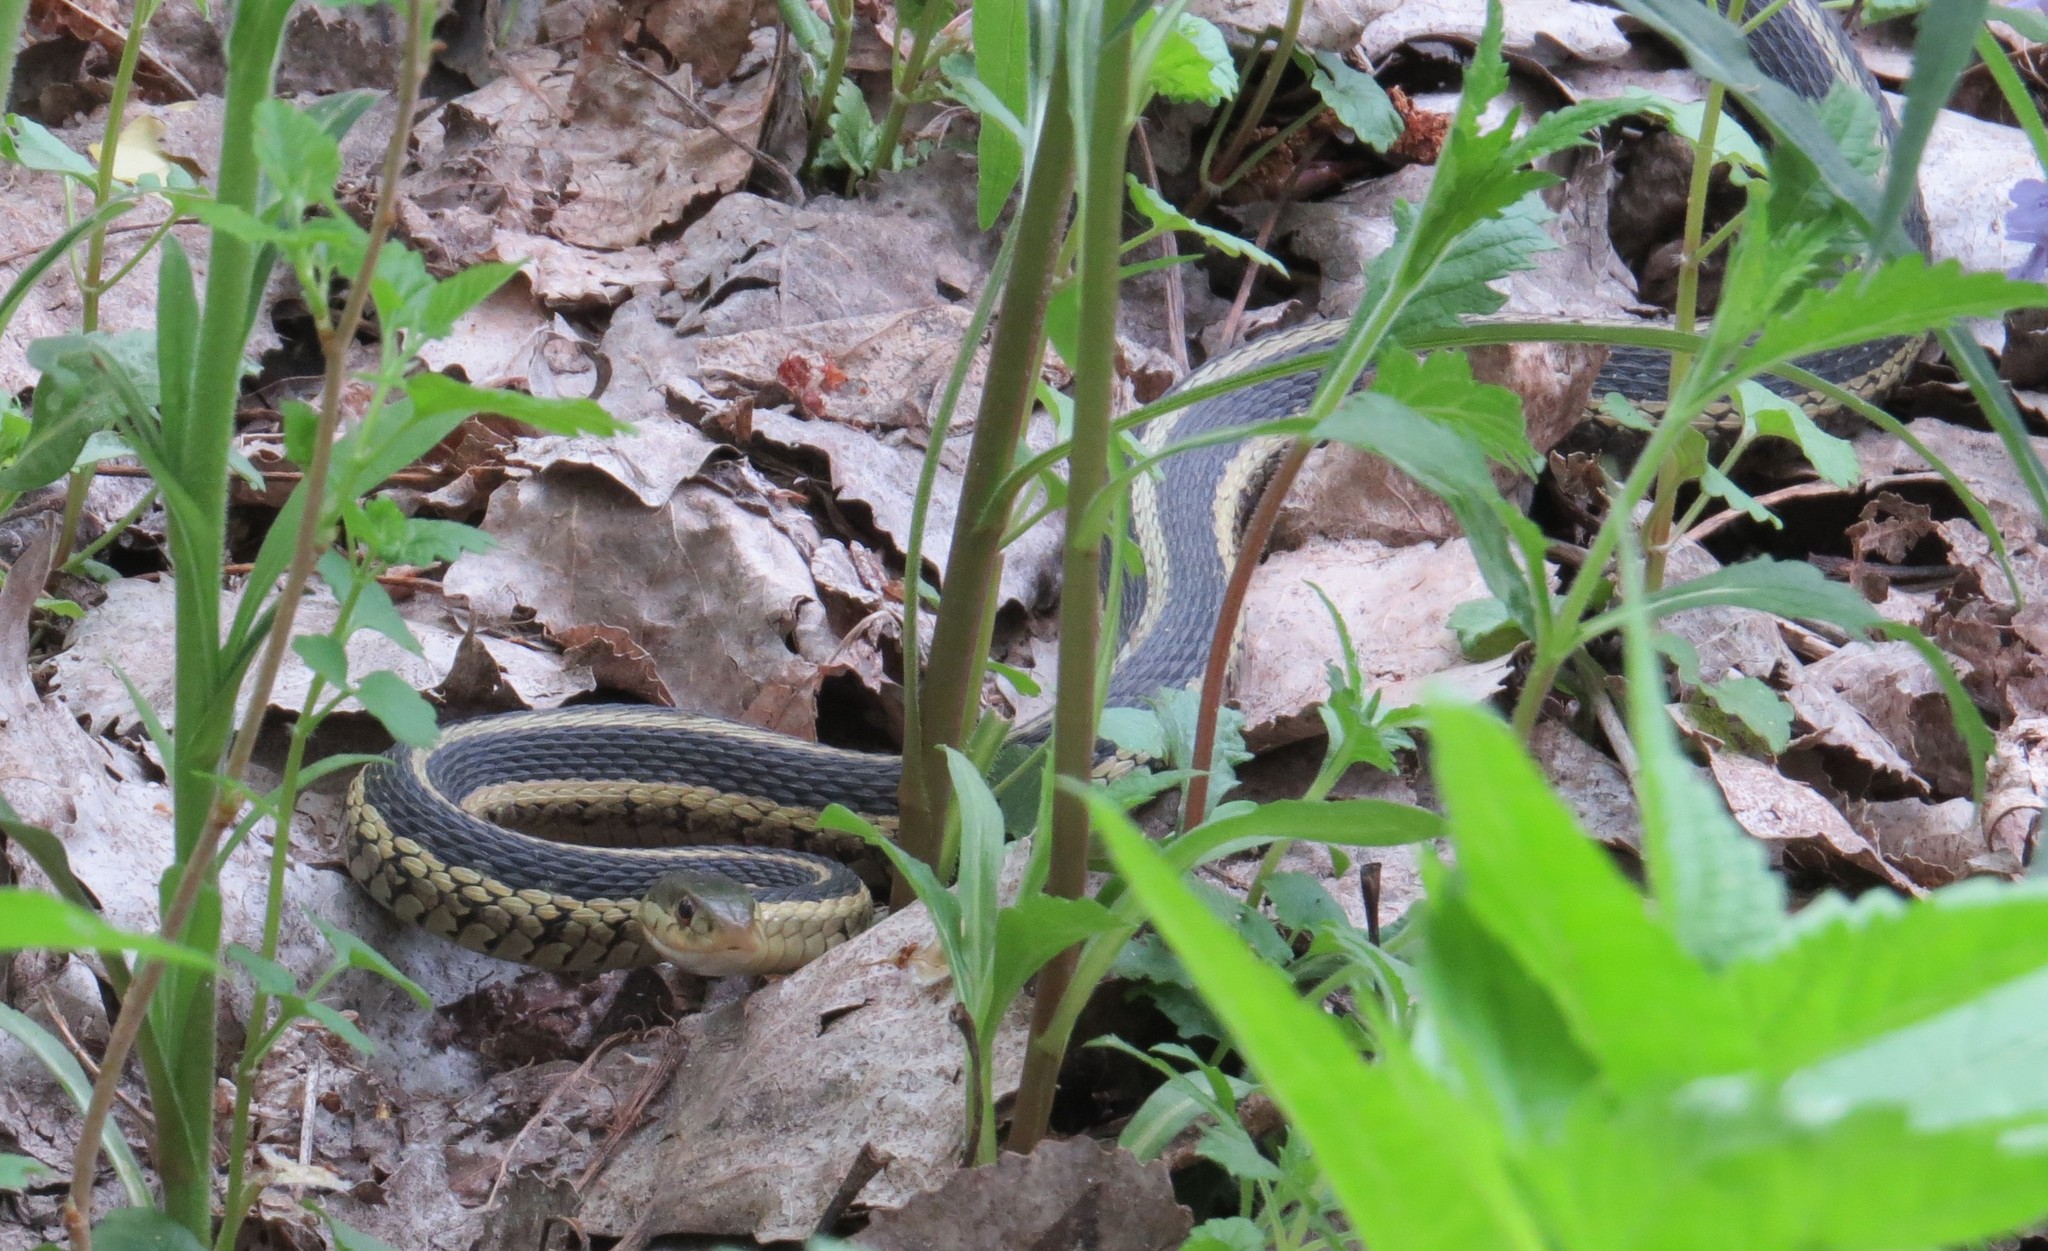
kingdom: Animalia
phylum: Chordata
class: Squamata
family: Colubridae
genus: Thamnophis
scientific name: Thamnophis sirtalis
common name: Common garter snake
